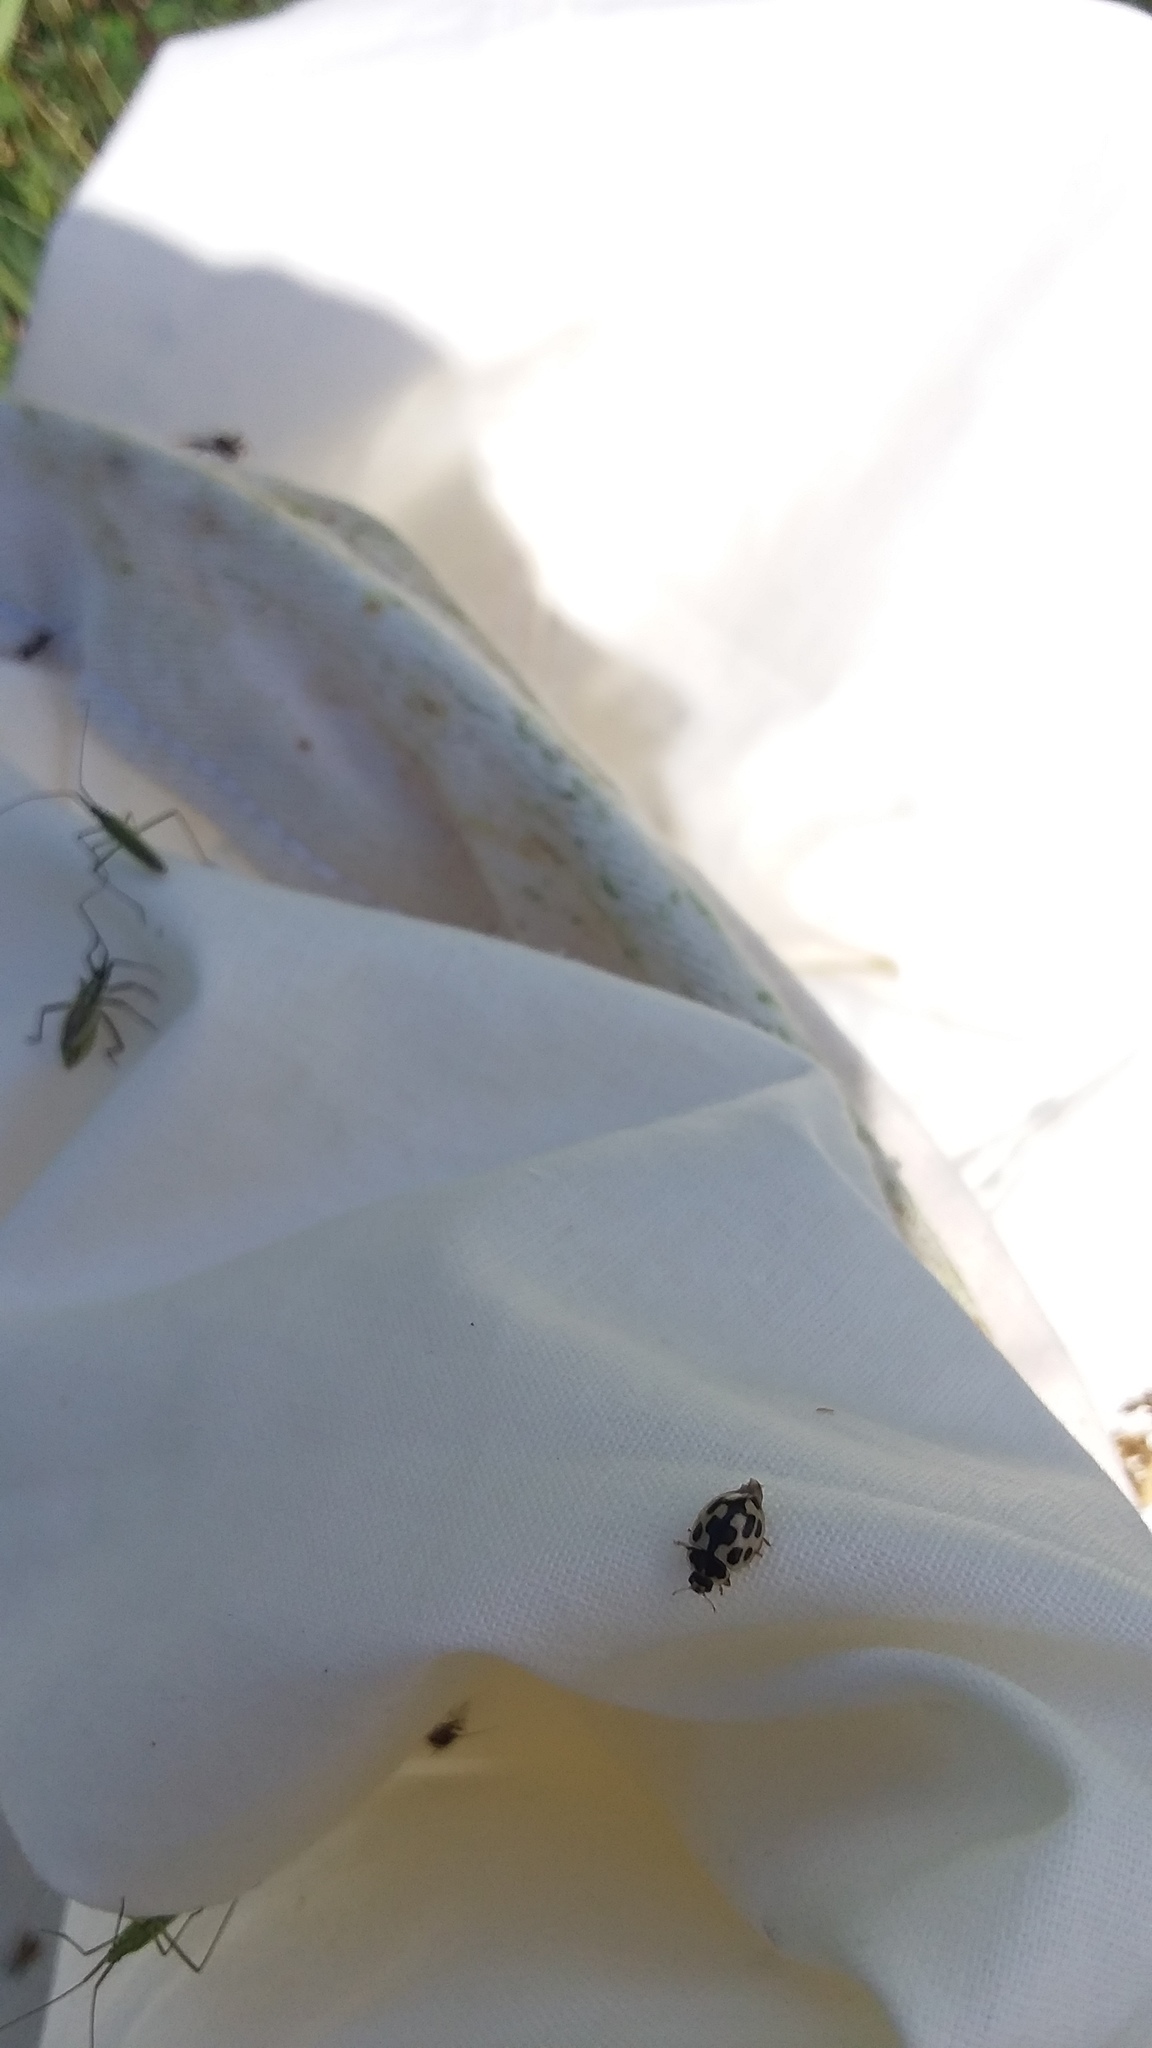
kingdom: Animalia
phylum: Arthropoda
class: Insecta
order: Coleoptera
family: Coccinellidae
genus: Propylaea
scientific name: Propylaea quatuordecimpunctata
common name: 14-spotted ladybird beetle
